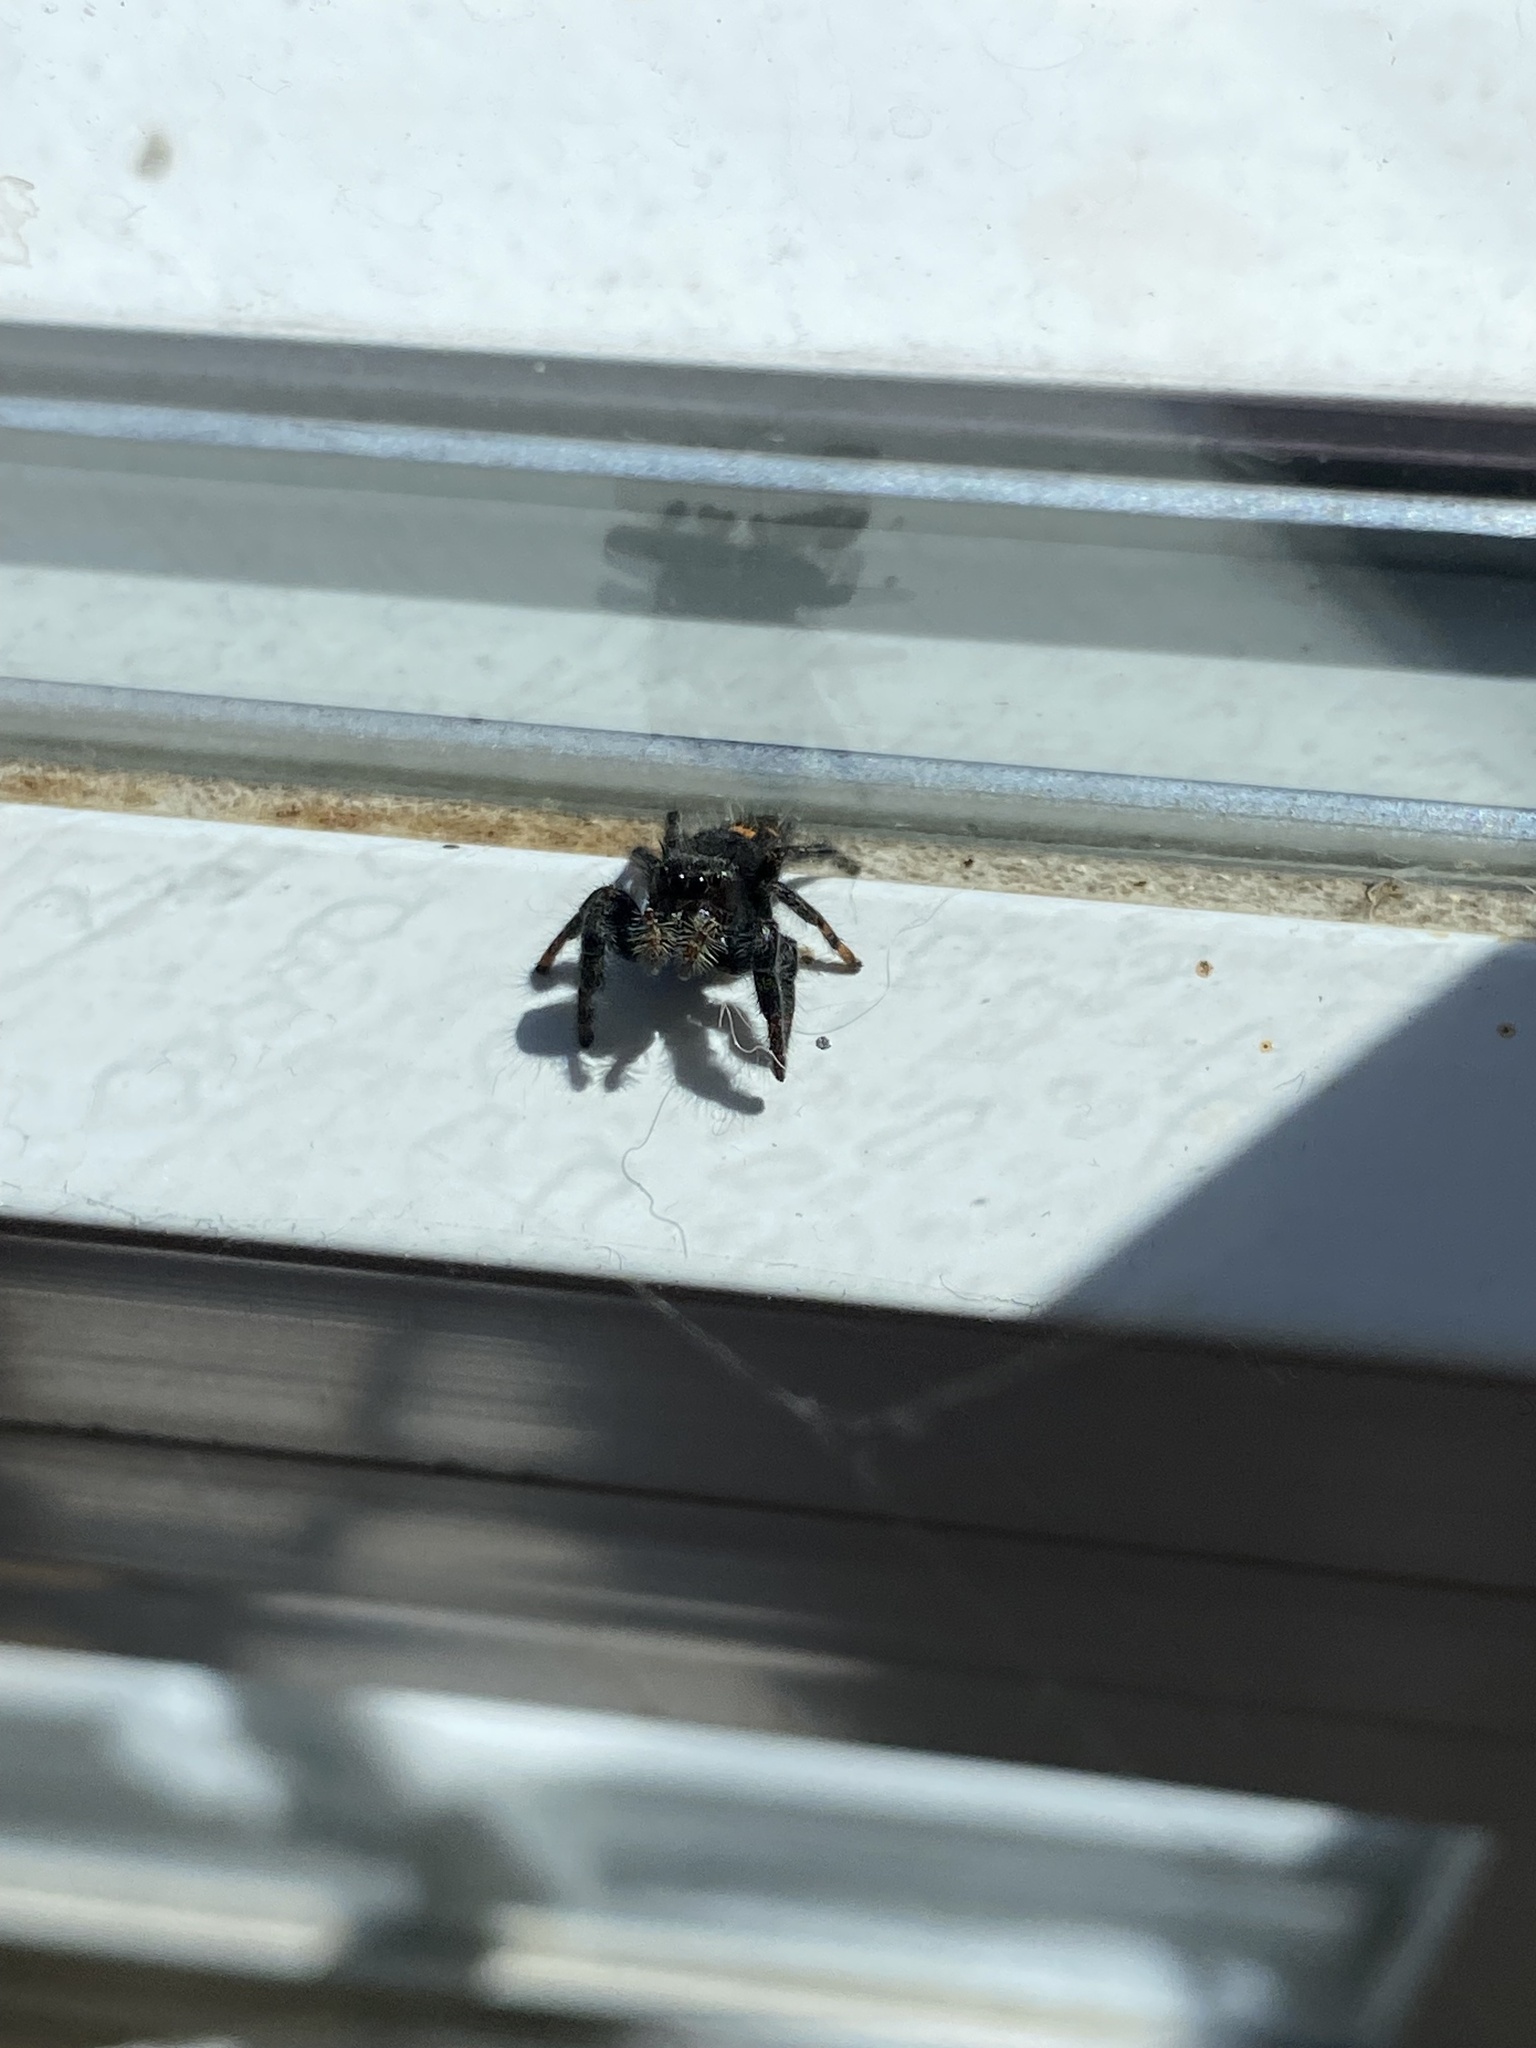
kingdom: Animalia
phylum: Arthropoda
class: Arachnida
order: Araneae
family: Salticidae
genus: Phidippus
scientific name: Phidippus audax
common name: Bold jumper
